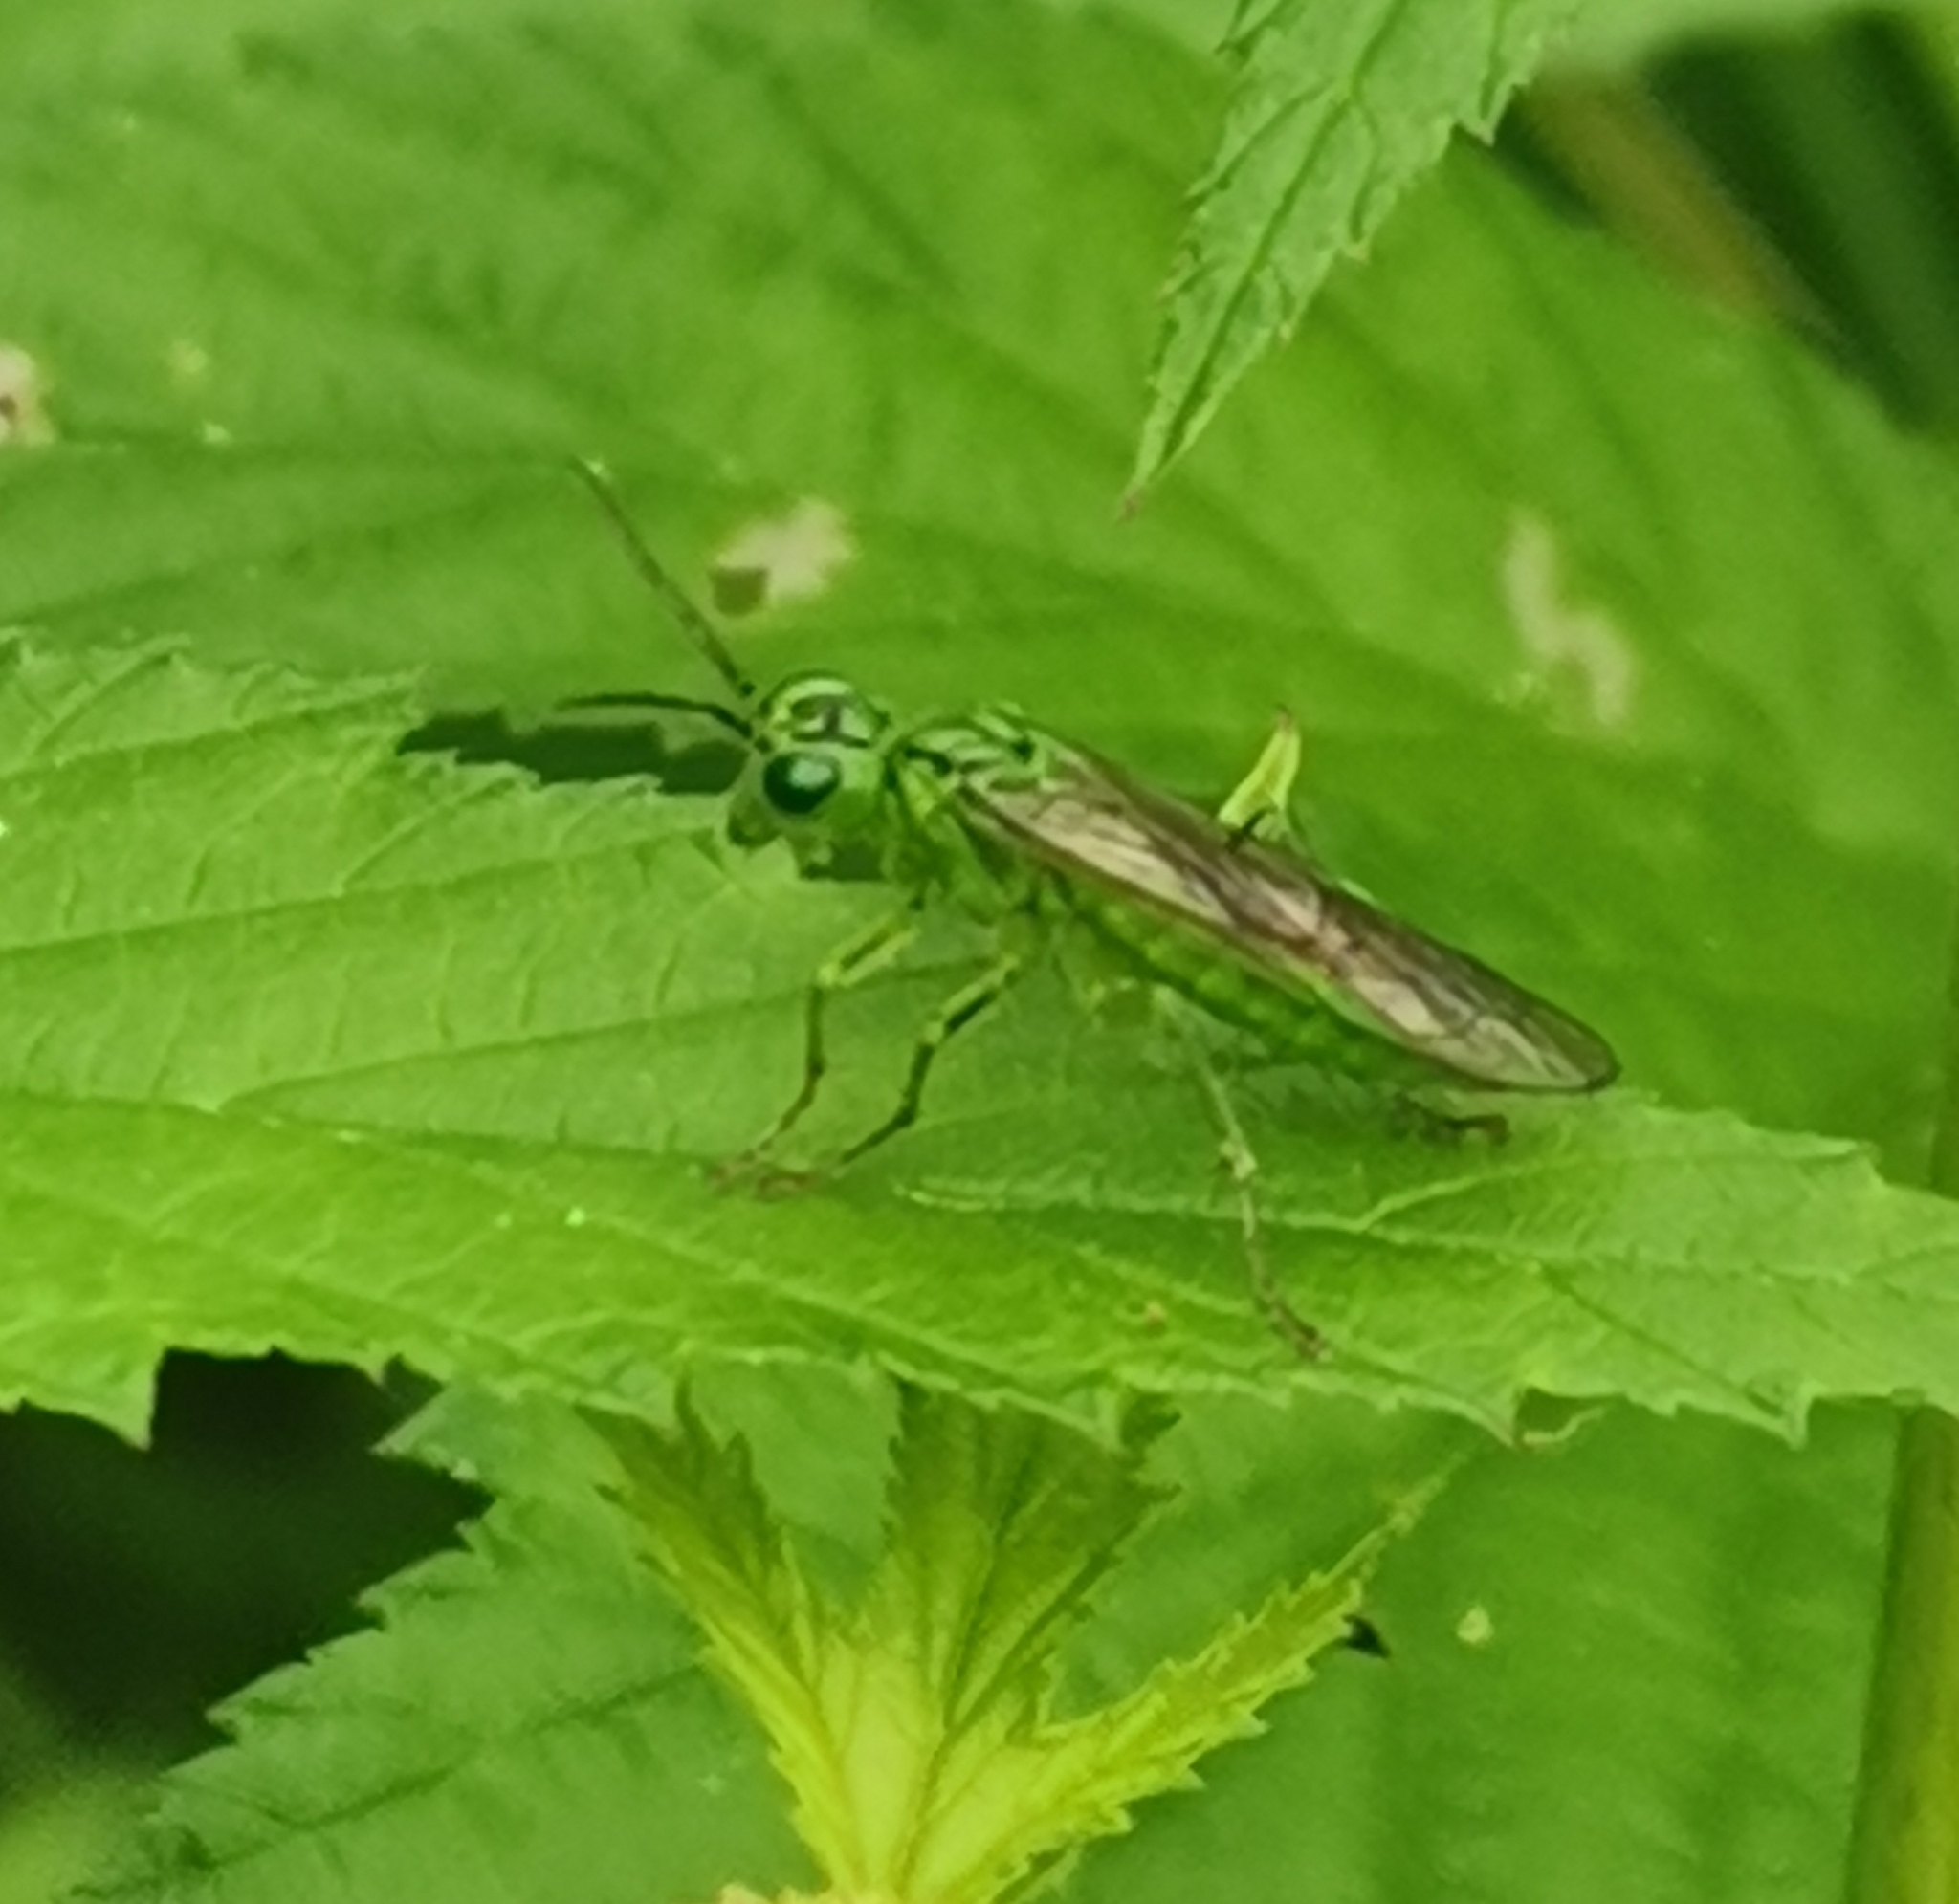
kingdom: Animalia
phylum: Arthropoda
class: Insecta
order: Hymenoptera
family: Tenthredinidae
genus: Tenthredo
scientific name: Tenthredo olivacea
